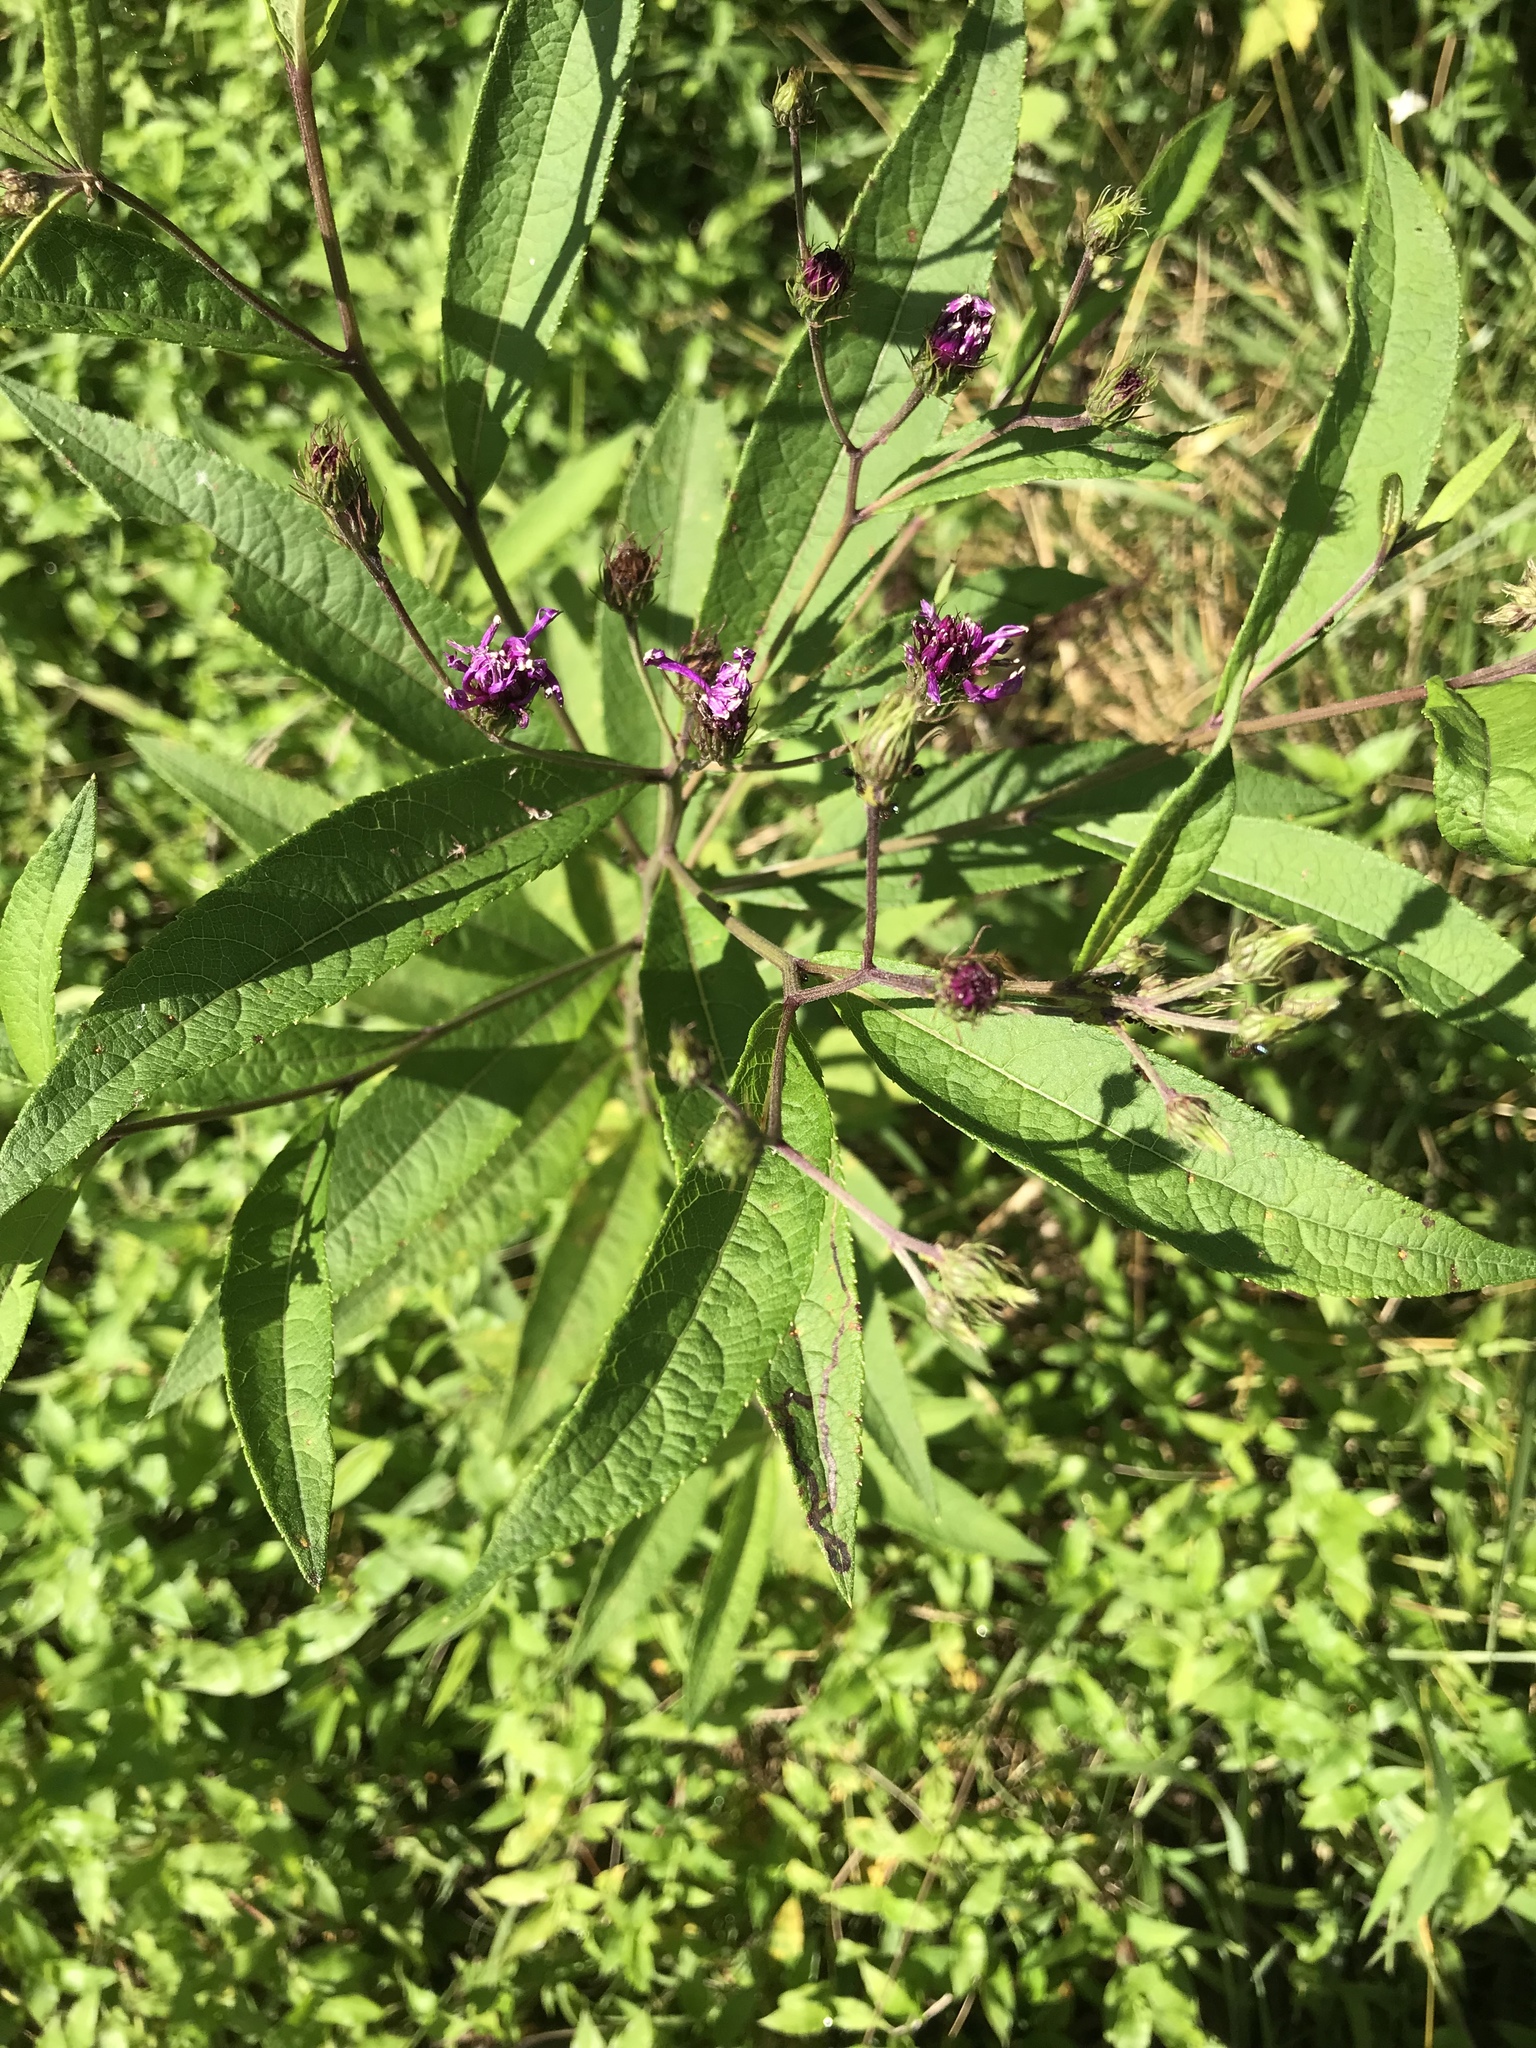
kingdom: Plantae
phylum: Tracheophyta
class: Magnoliopsida
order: Asterales
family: Asteraceae
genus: Vernonia
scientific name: Vernonia noveboracensis
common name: New york ironweed
